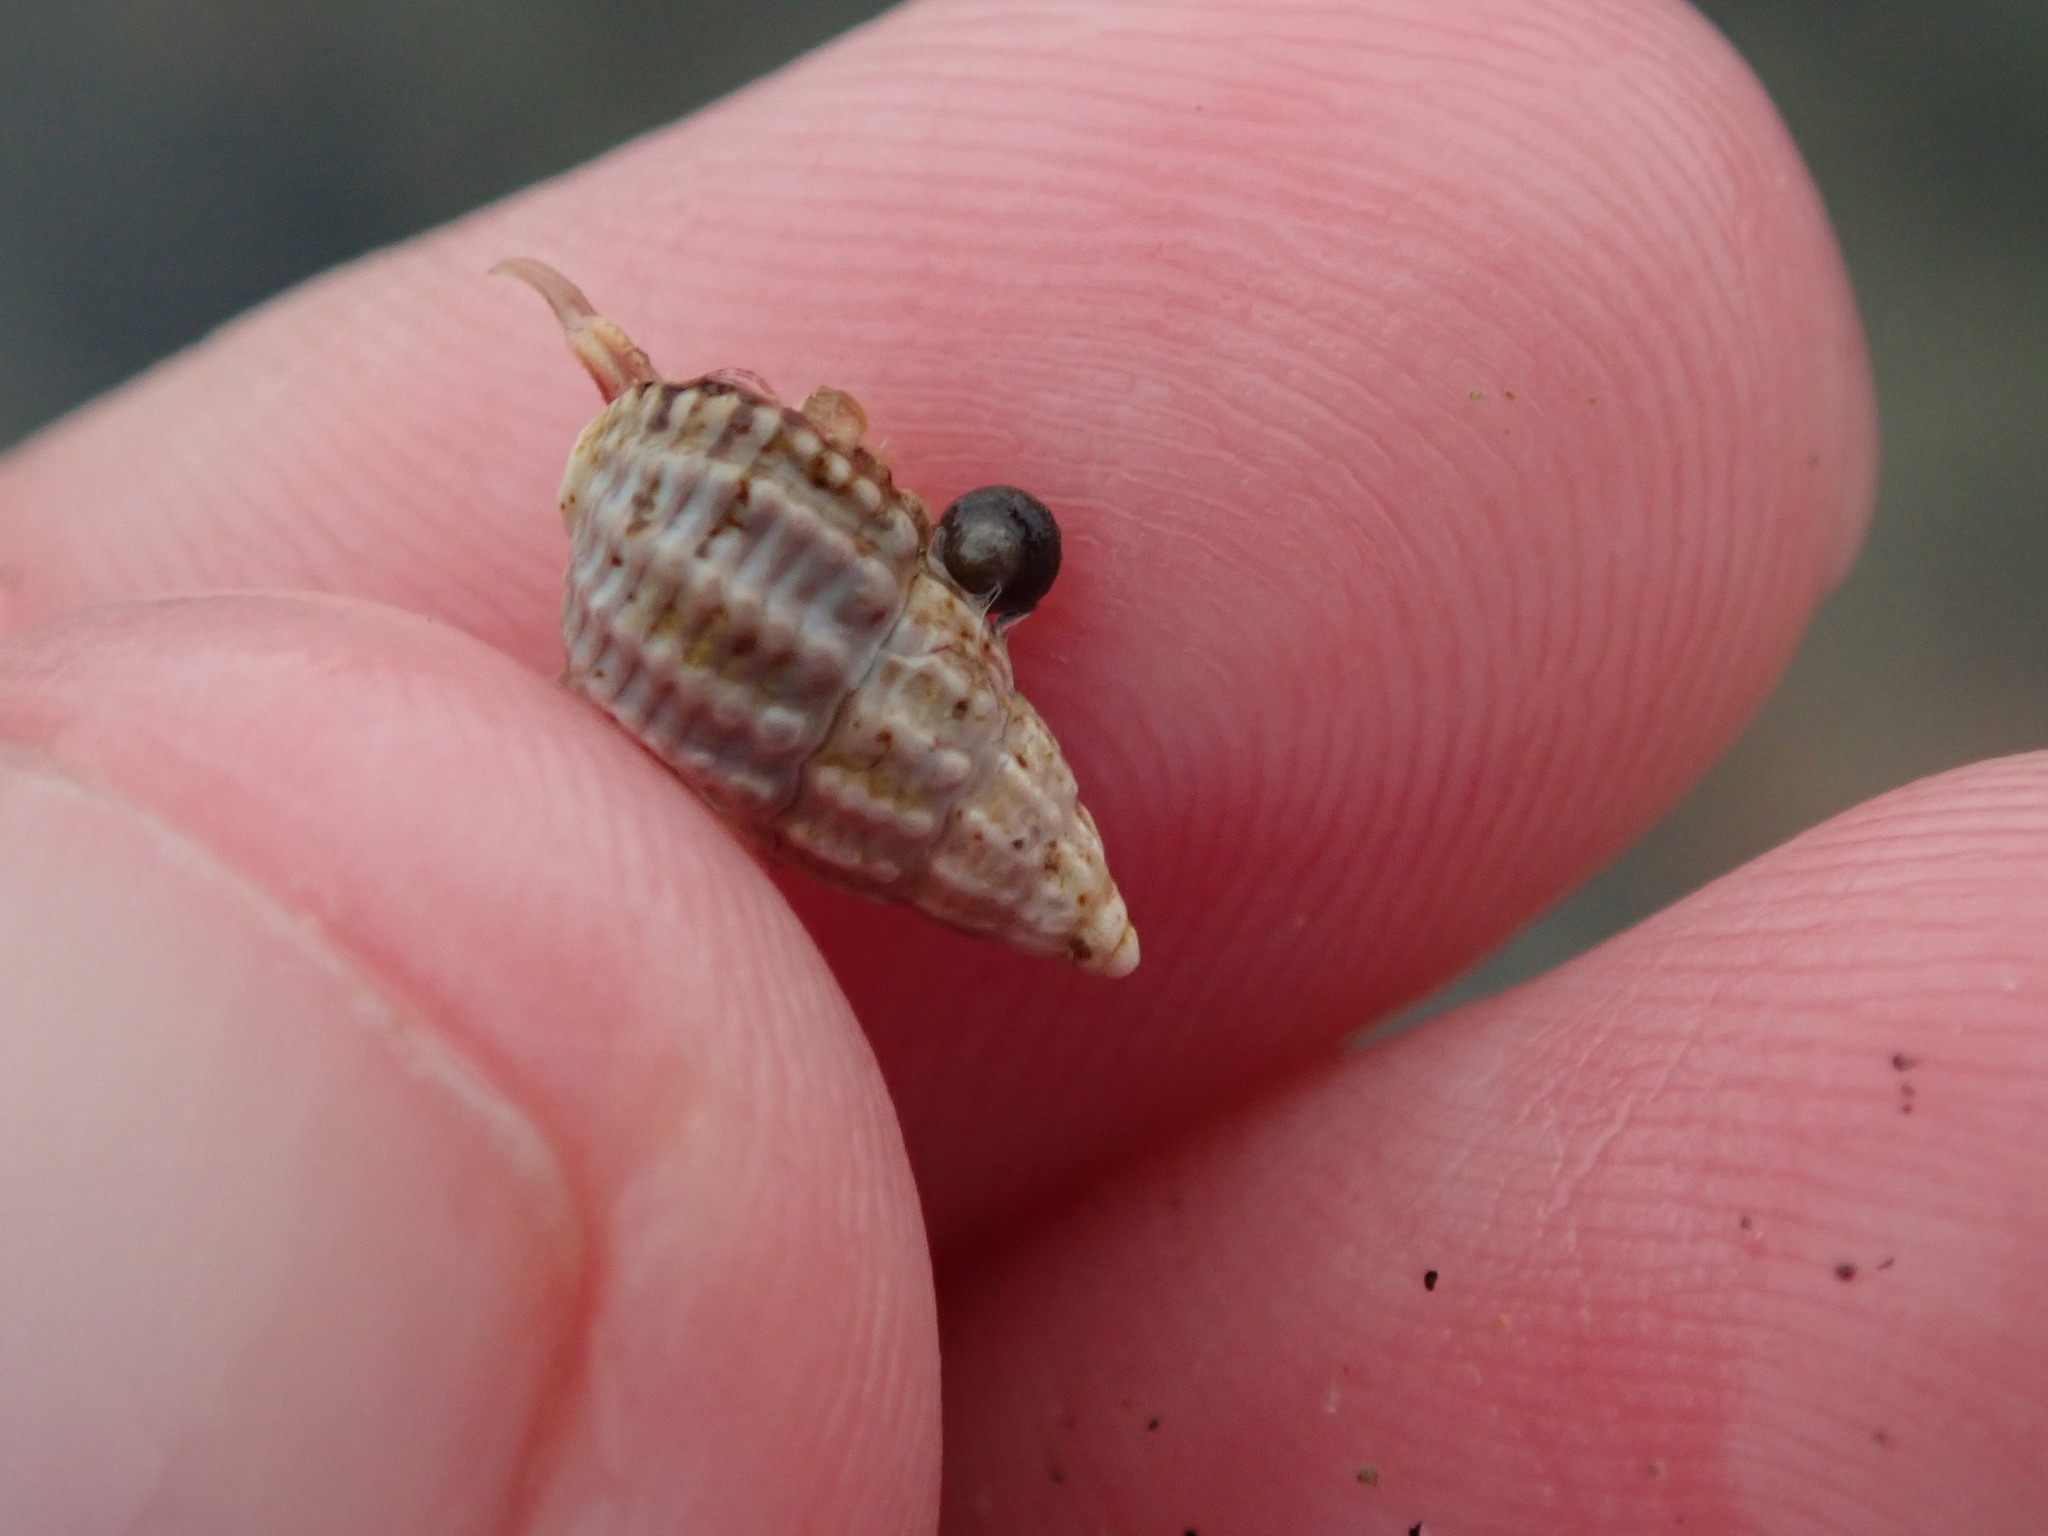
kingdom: Animalia
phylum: Mollusca
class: Gastropoda
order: Neogastropoda
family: Nassariidae
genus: Ilyanassa
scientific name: Ilyanassa trivittata
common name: Three-line mudsnail
